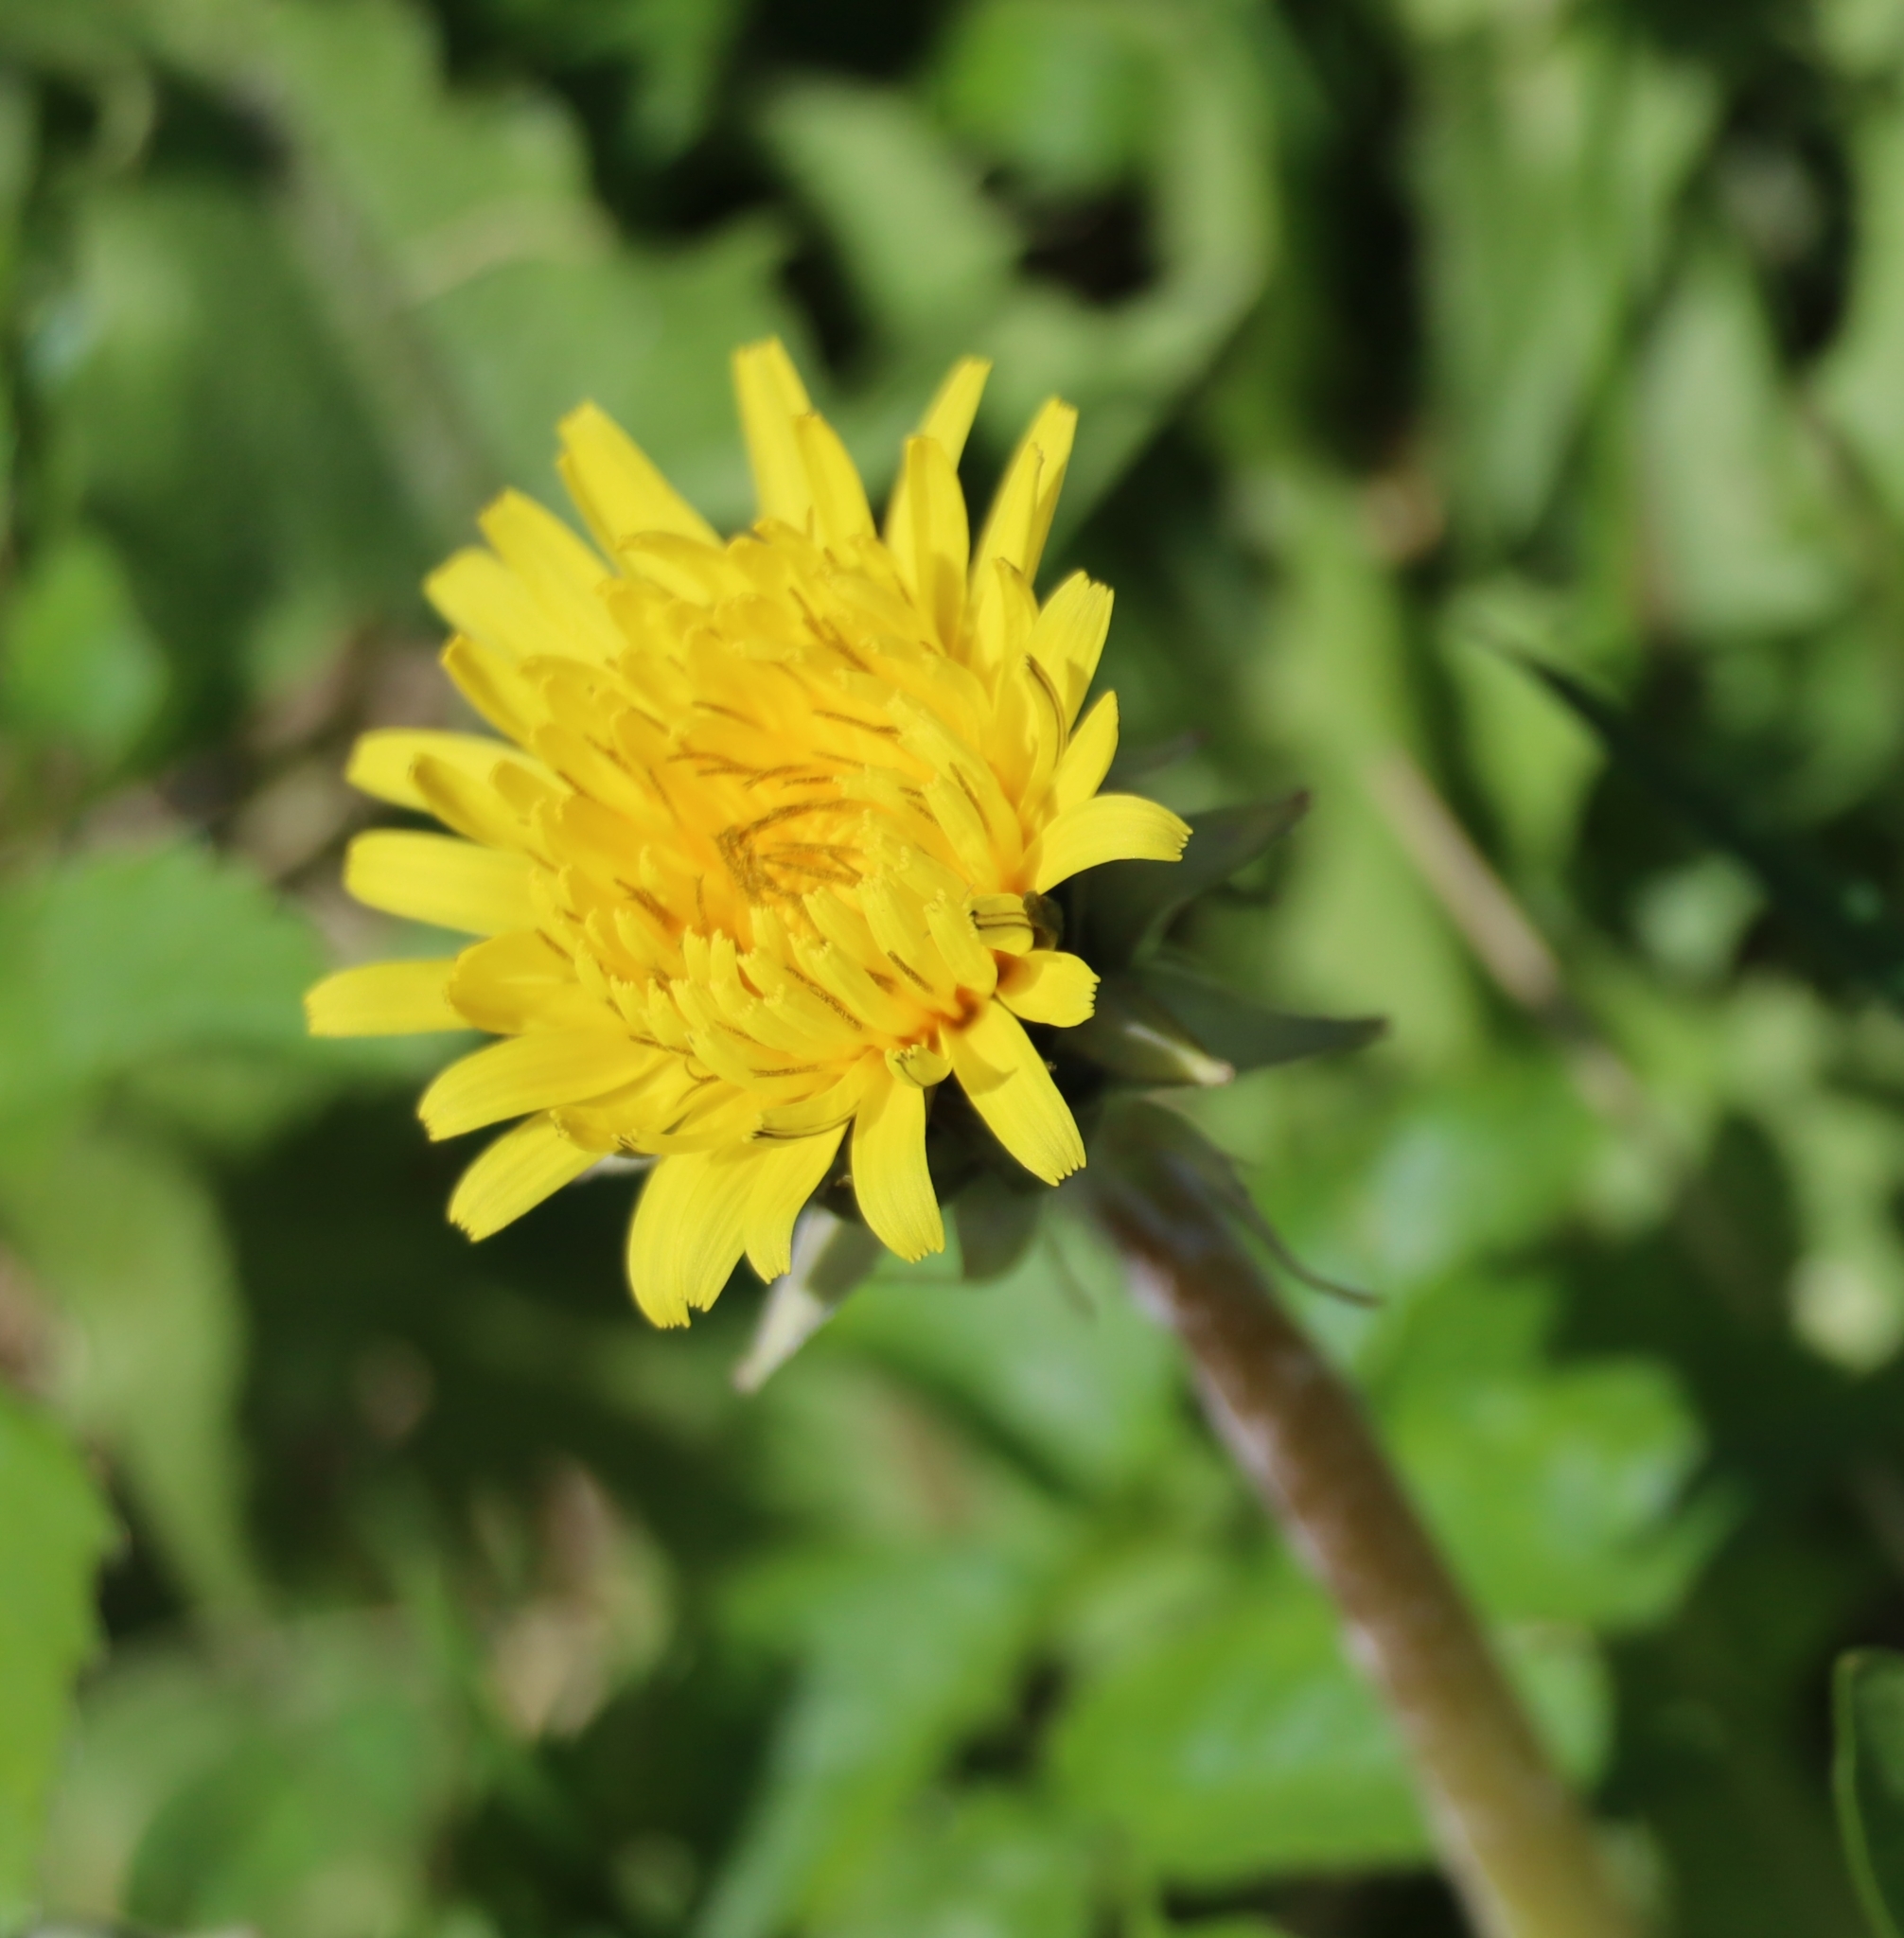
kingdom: Plantae
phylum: Tracheophyta
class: Magnoliopsida
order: Asterales
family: Asteraceae
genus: Taraxacum
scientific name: Taraxacum officinale
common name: Common dandelion
